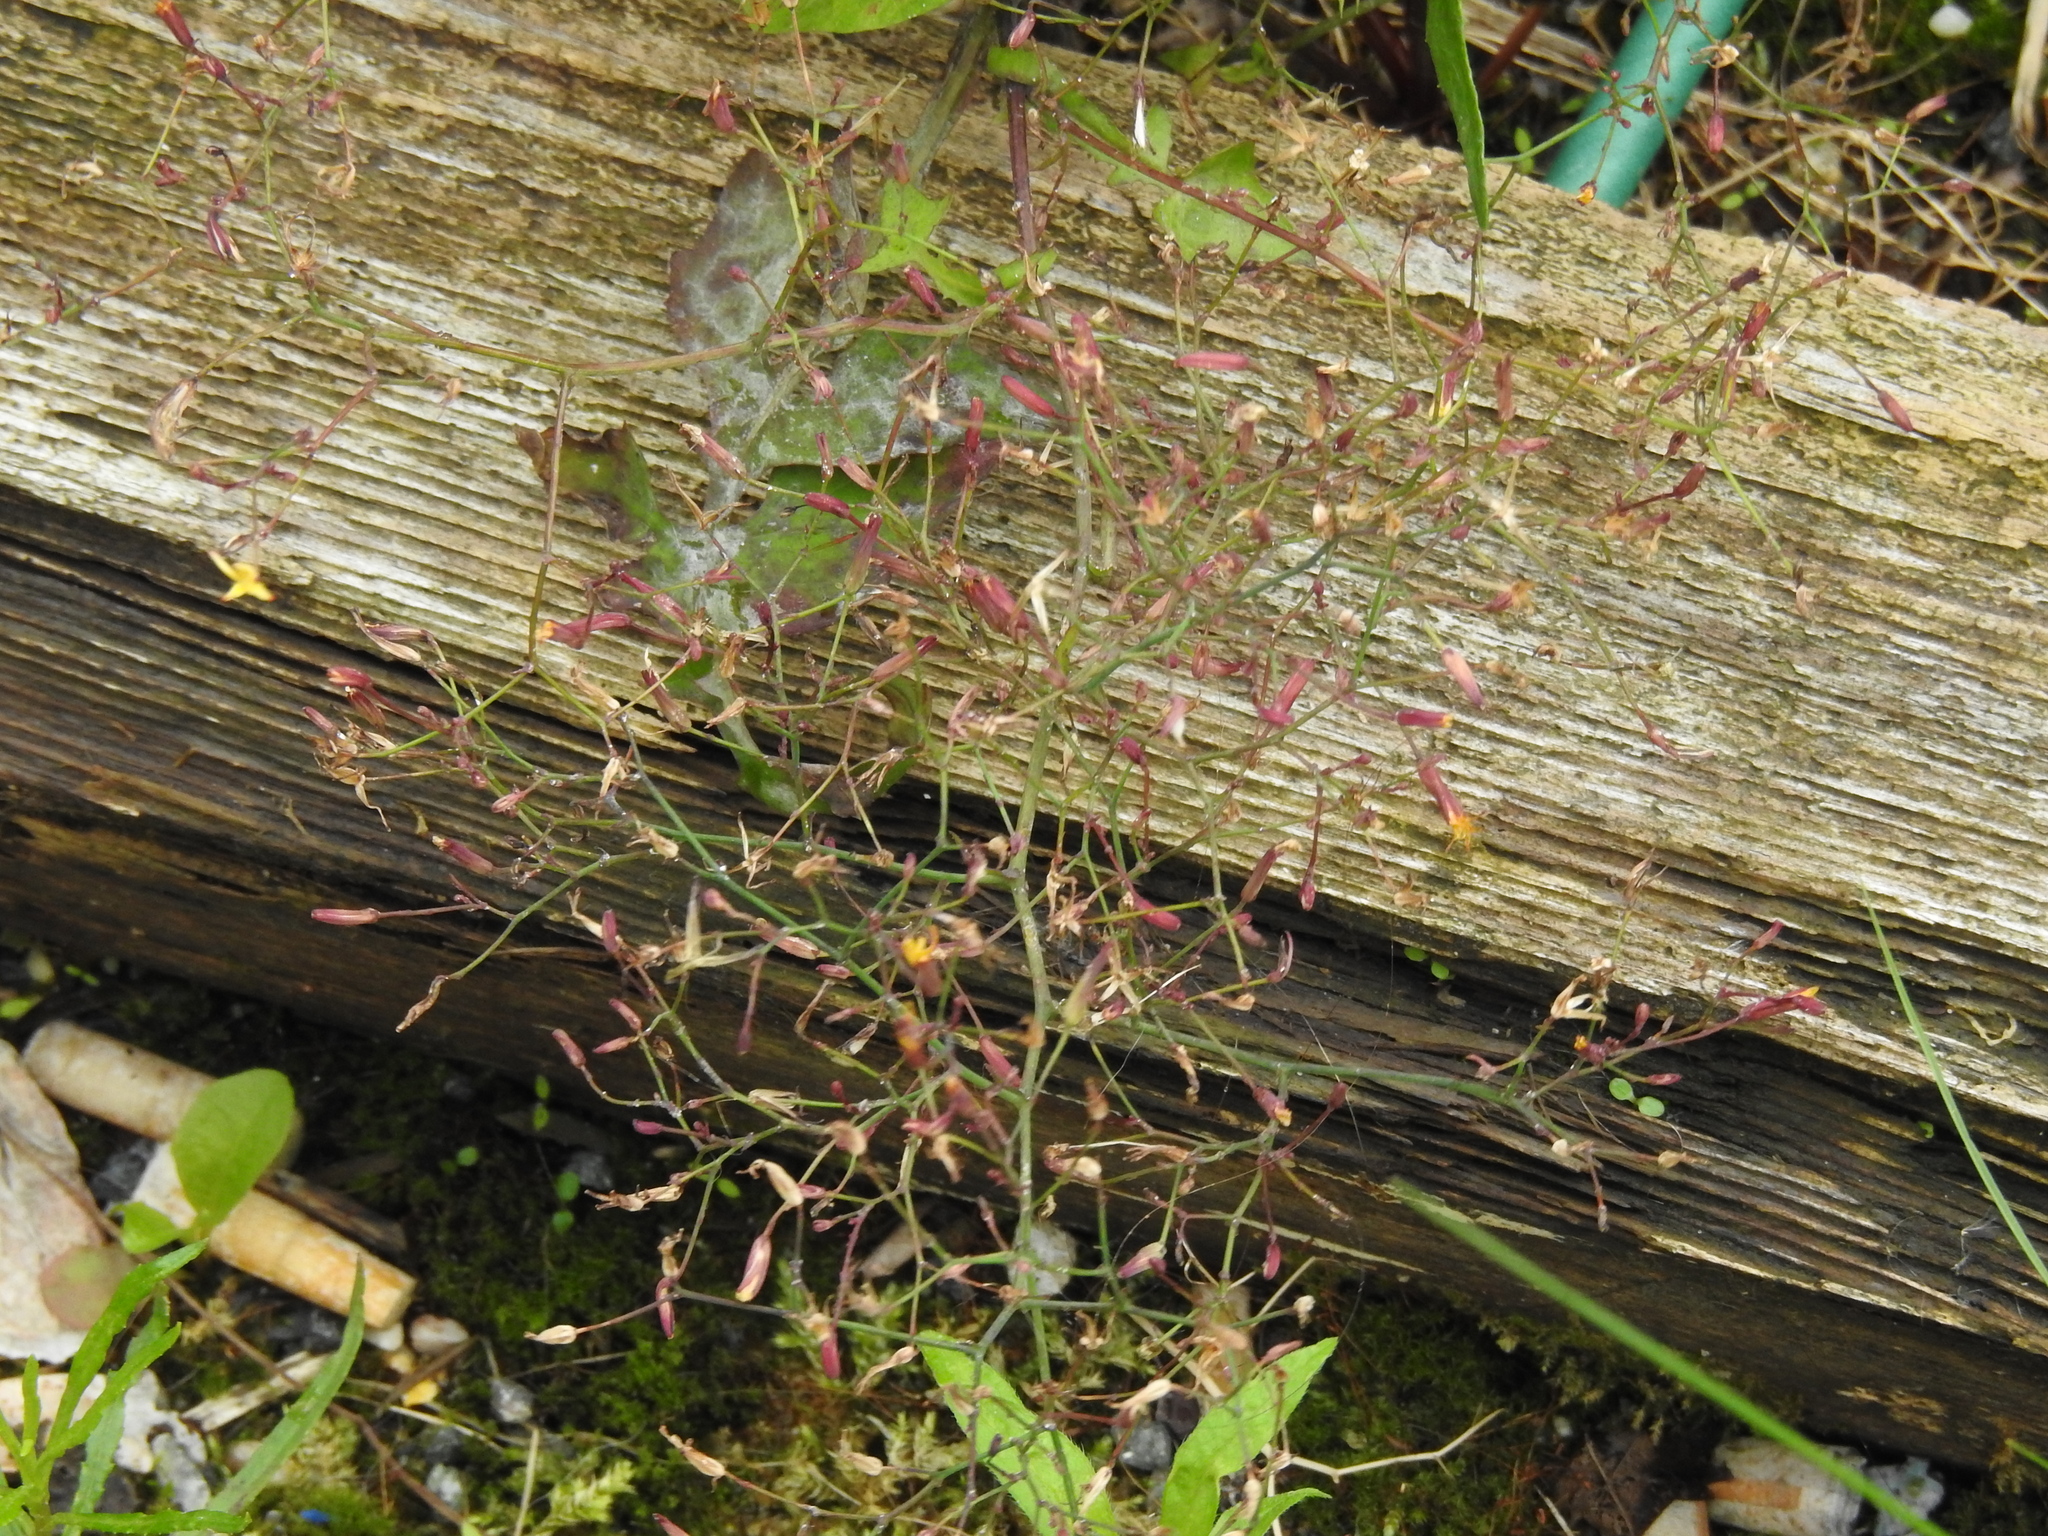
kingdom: Plantae
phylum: Tracheophyta
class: Magnoliopsida
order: Asterales
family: Asteraceae
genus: Mycelis
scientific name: Mycelis muralis
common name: Wall lettuce
